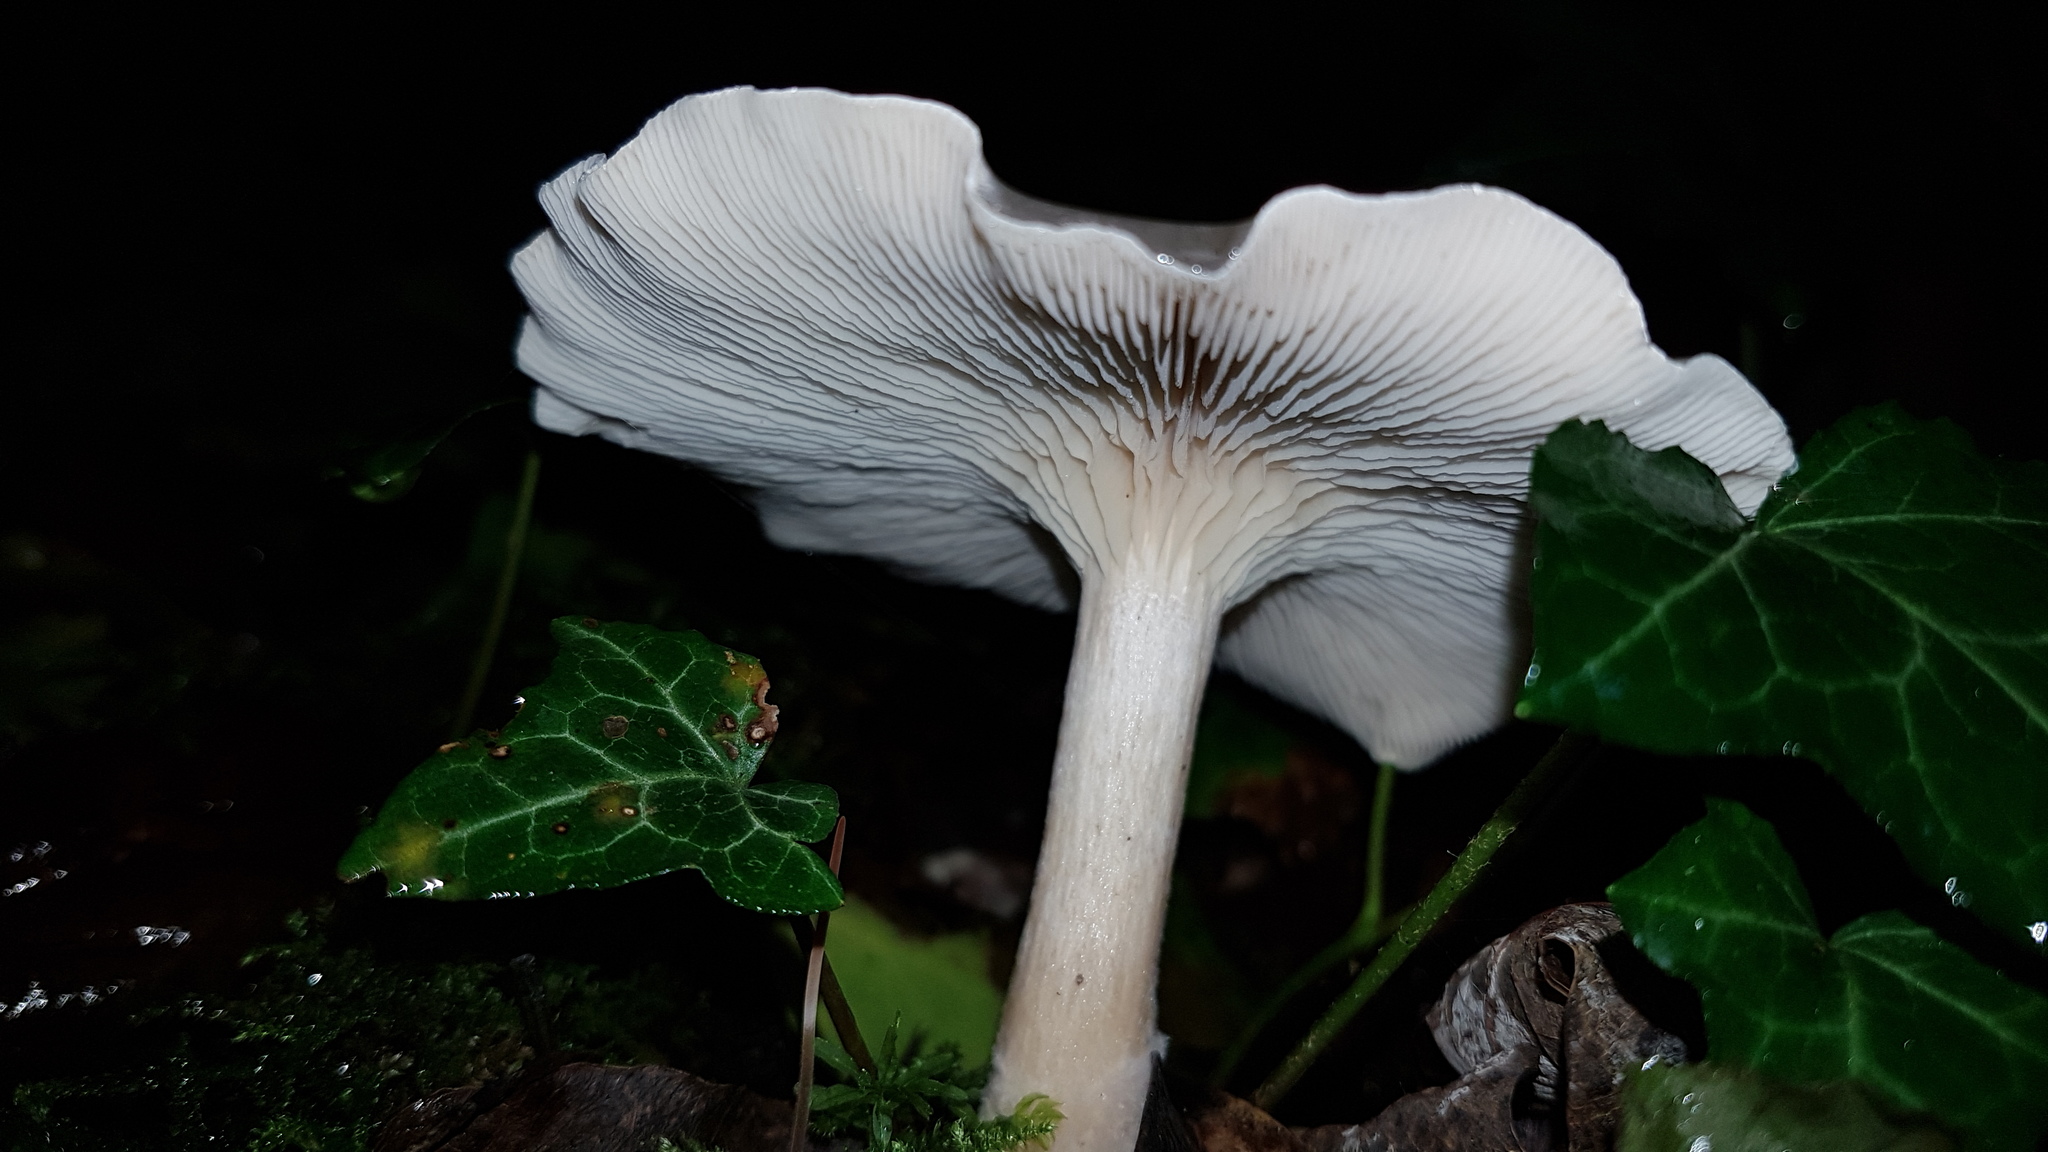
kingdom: Fungi
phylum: Basidiomycota
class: Agaricomycetes
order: Agaricales
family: Tricholomataceae
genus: Collybia
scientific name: Collybia phylladophila
